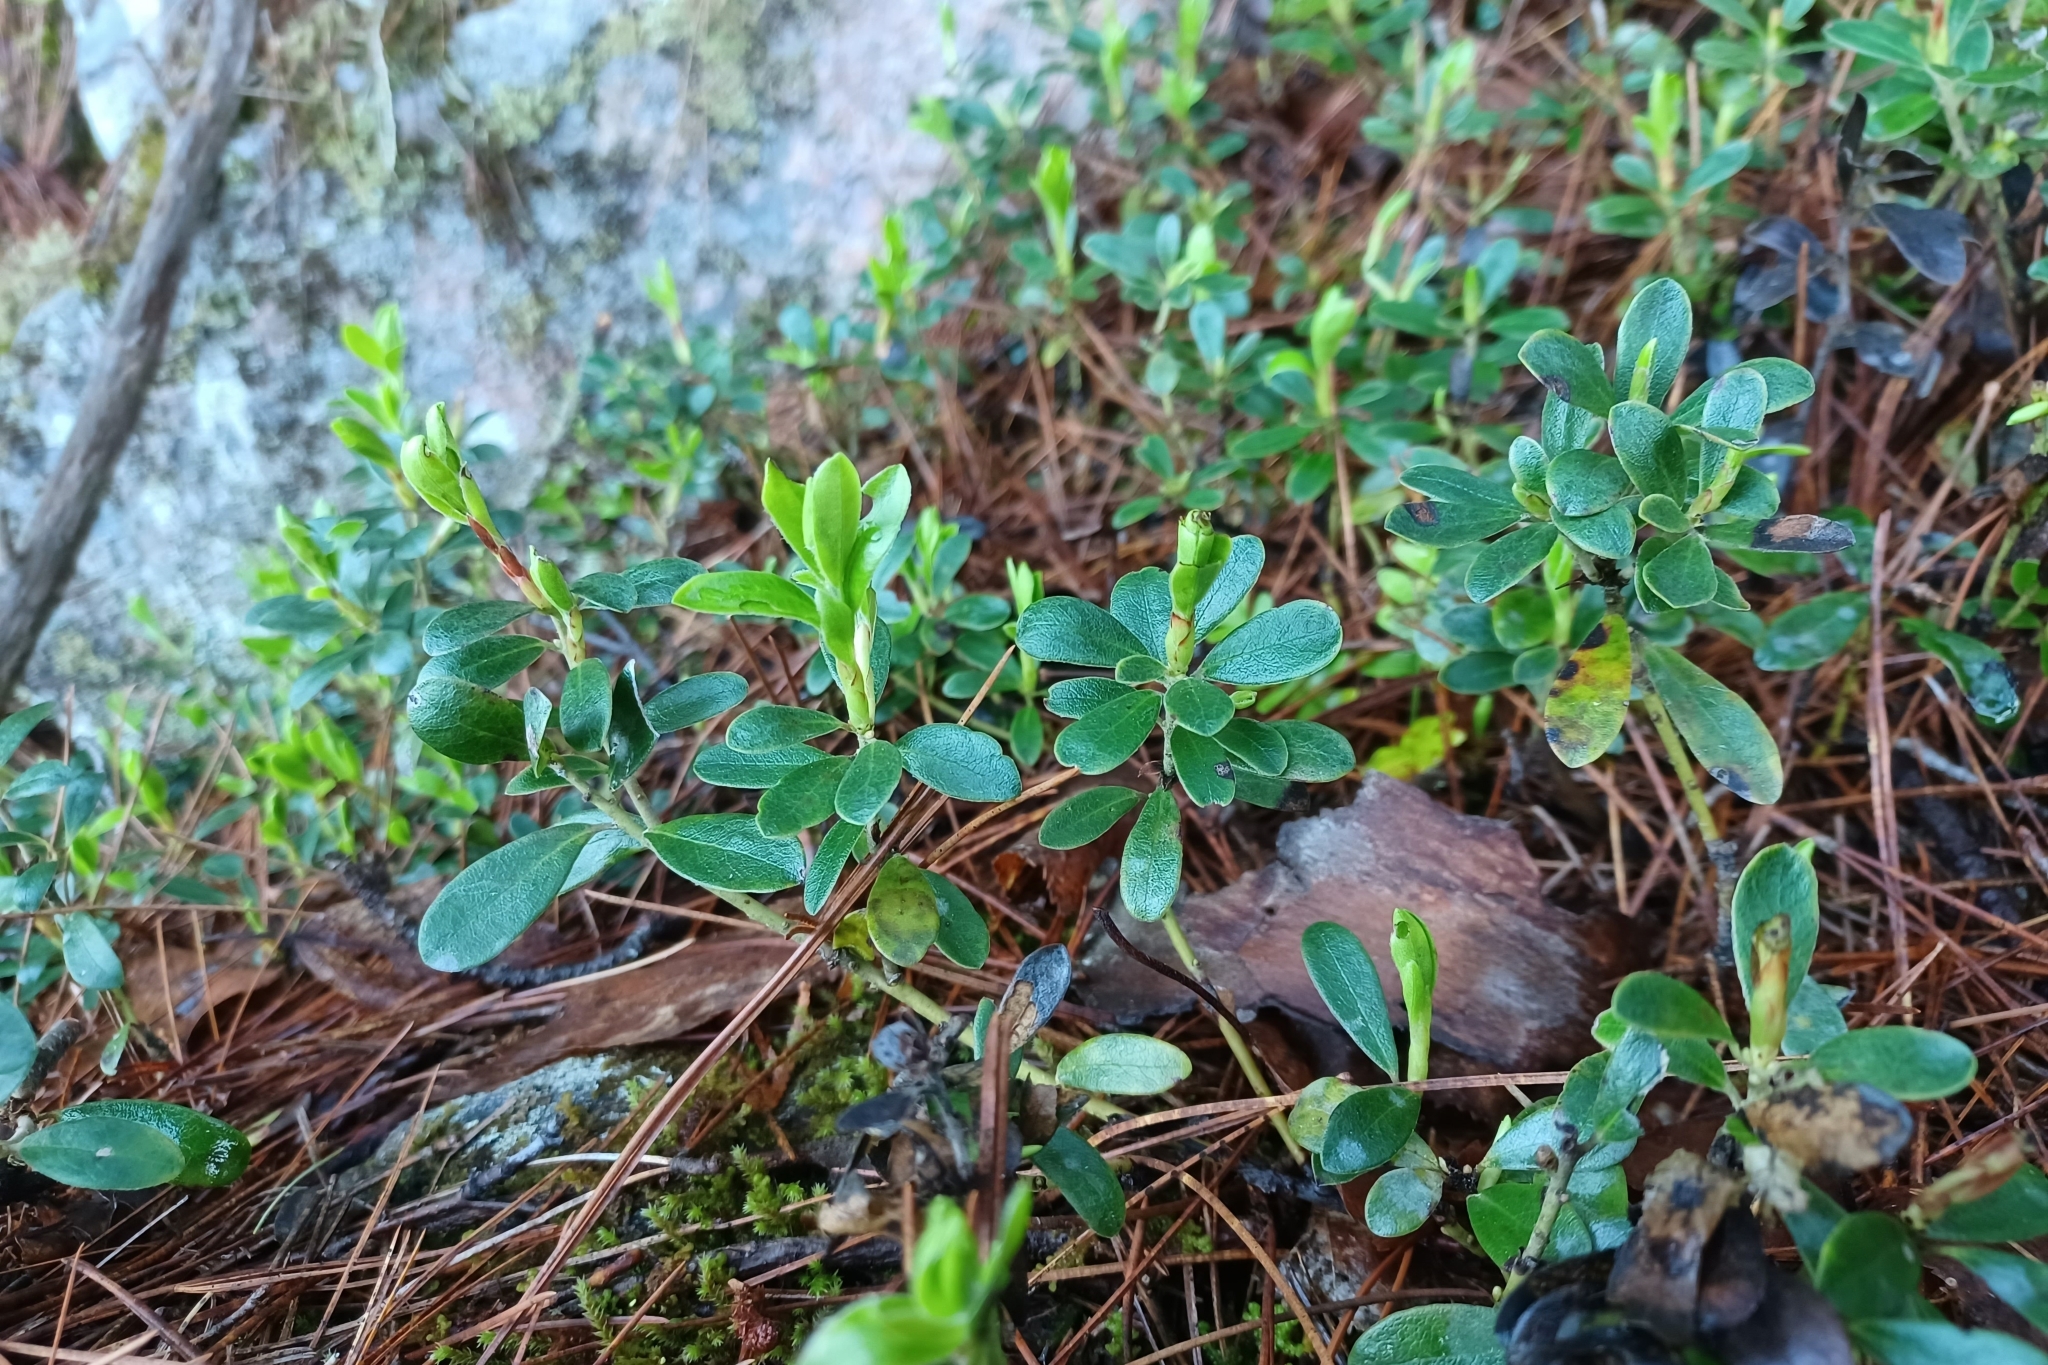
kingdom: Plantae
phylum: Tracheophyta
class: Magnoliopsida
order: Ericales
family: Ericaceae
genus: Arctostaphylos
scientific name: Arctostaphylos uva-ursi
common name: Bearberry
